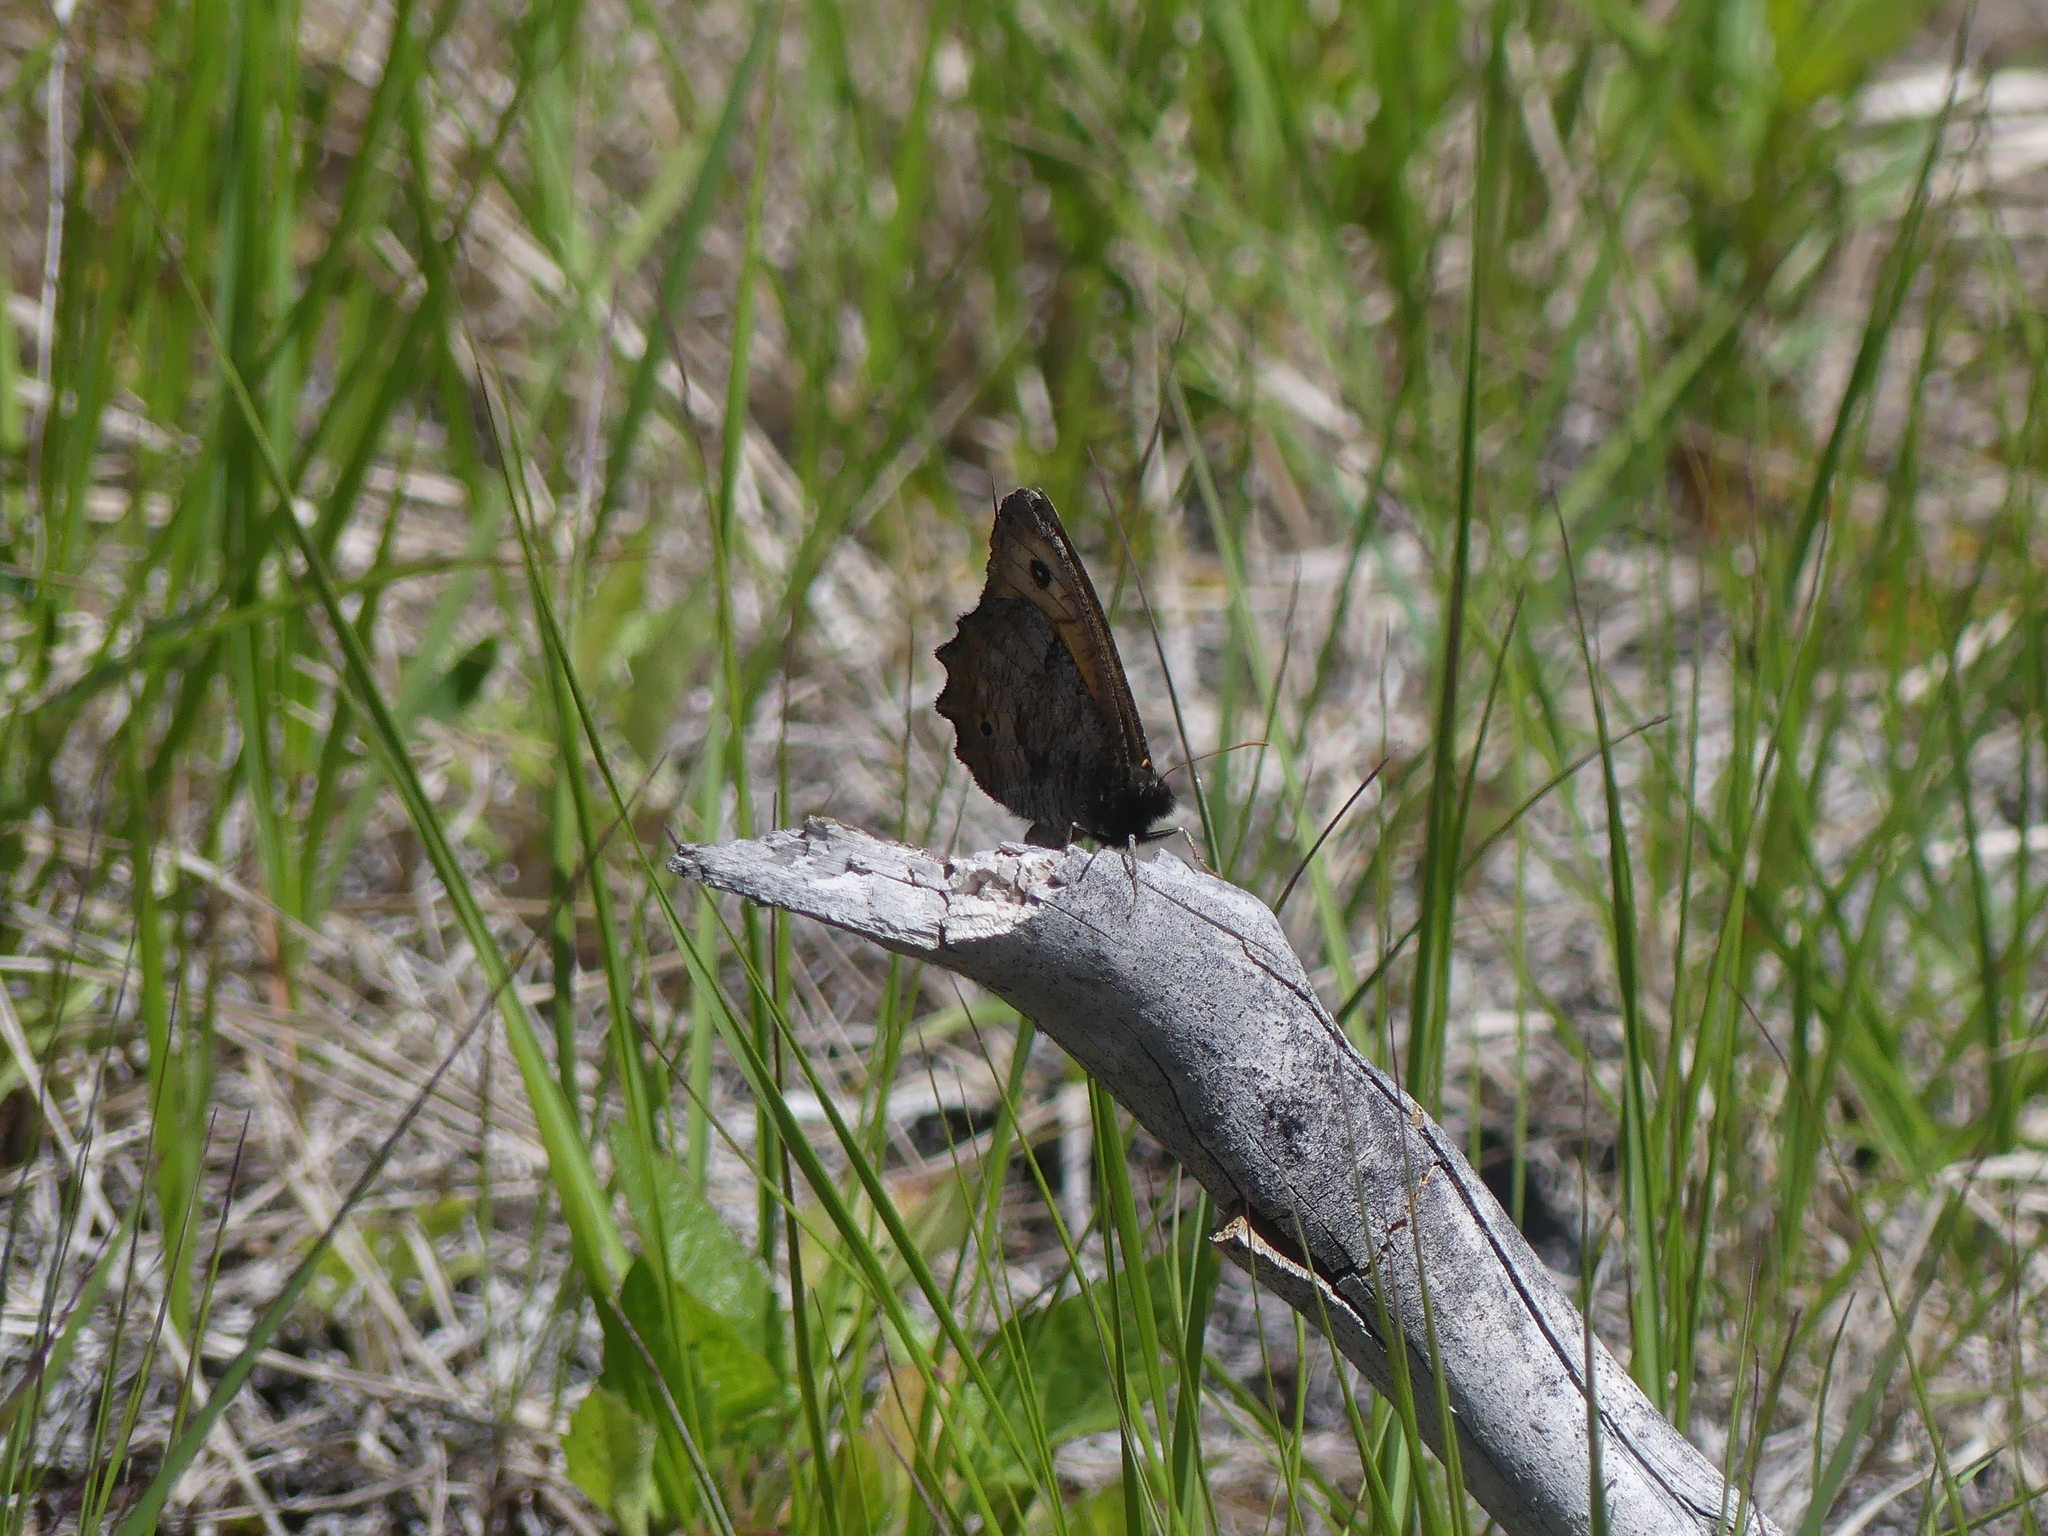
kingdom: Animalia
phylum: Arthropoda
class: Insecta
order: Lepidoptera
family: Nymphalidae
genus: Oeneis
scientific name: Oeneis macounii
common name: Macoun's arctic
